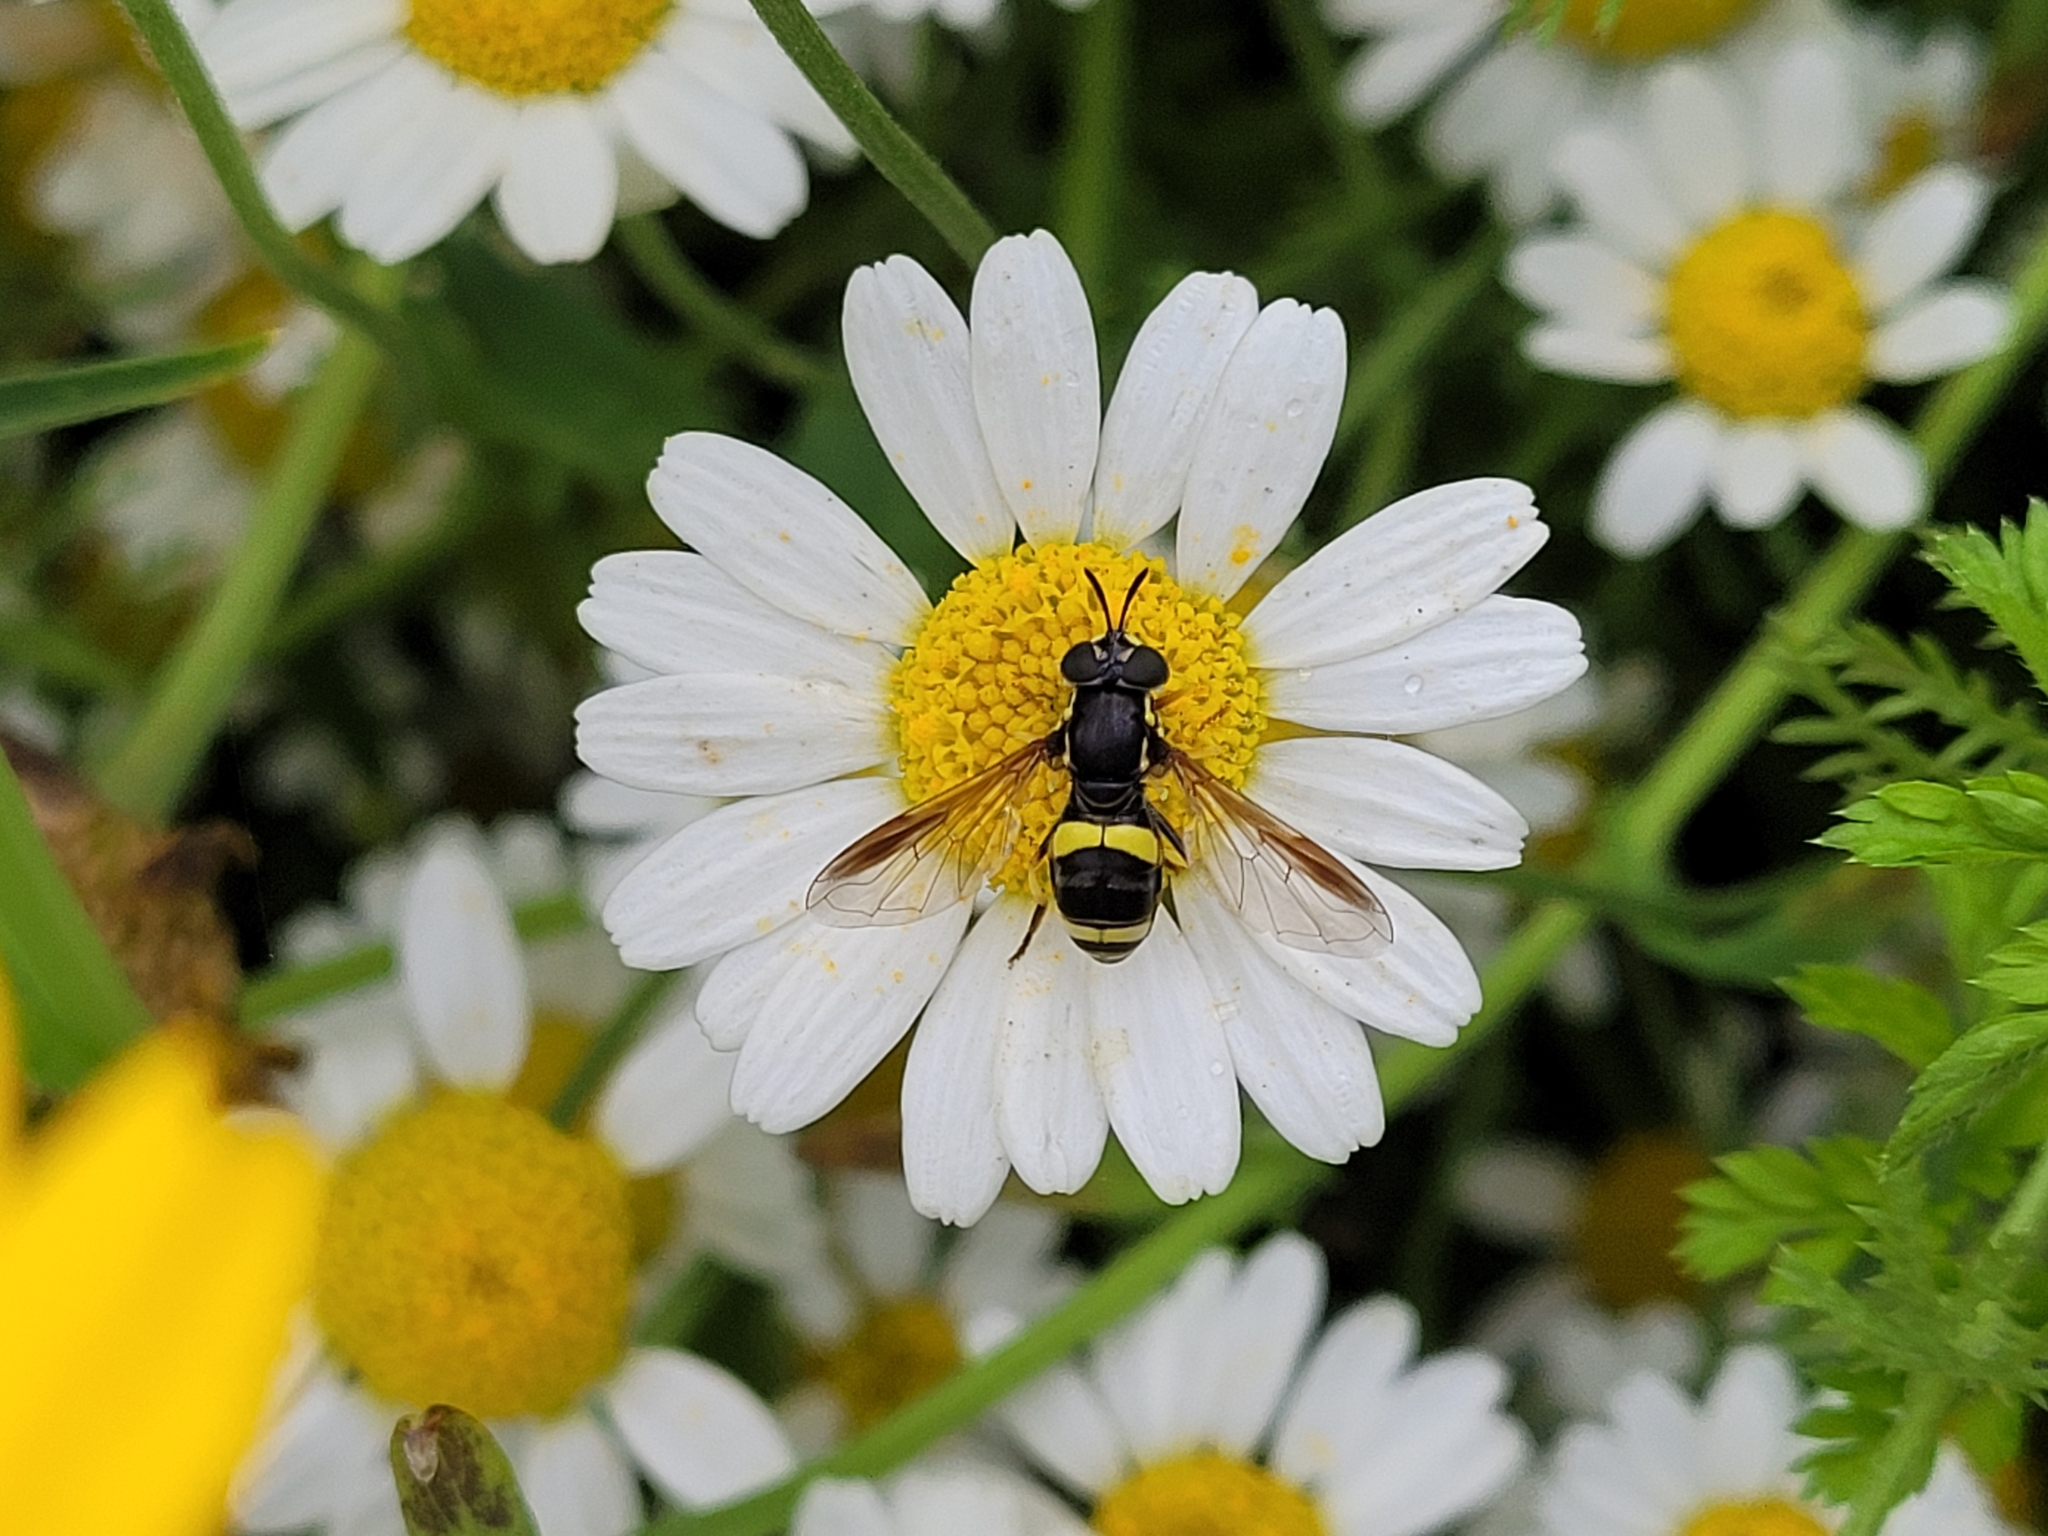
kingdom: Animalia
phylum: Arthropoda
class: Insecta
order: Diptera
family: Syrphidae
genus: Chrysotoxum
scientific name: Chrysotoxum bicincta
